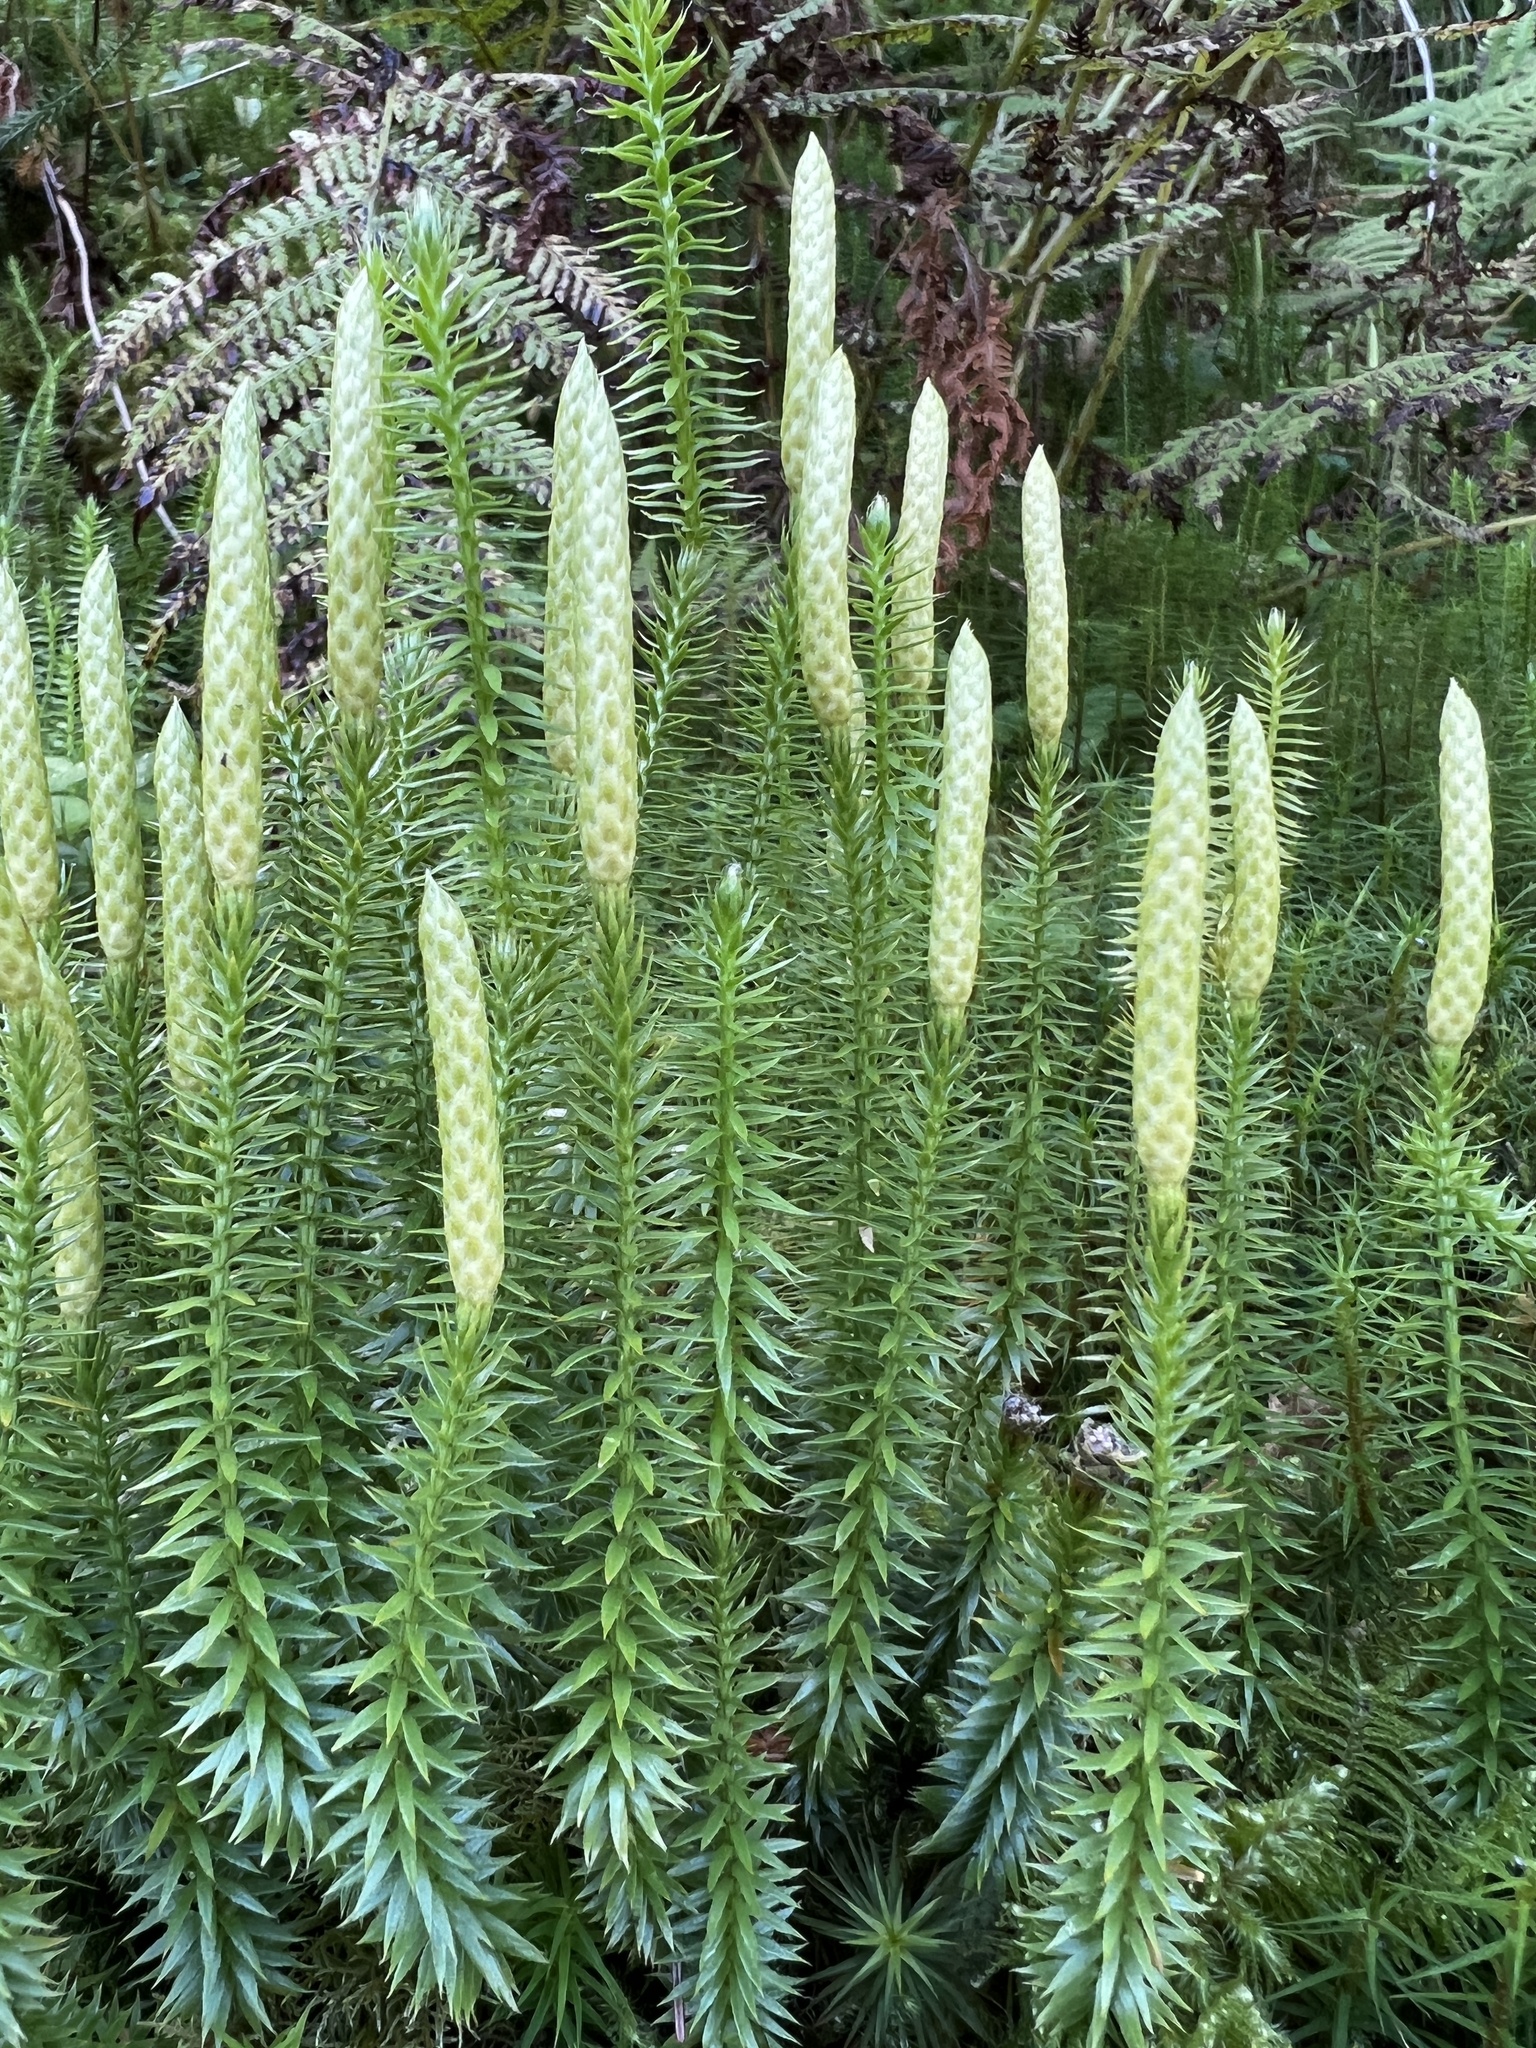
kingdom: Plantae
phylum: Tracheophyta
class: Lycopodiopsida
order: Lycopodiales
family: Lycopodiaceae
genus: Spinulum
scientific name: Spinulum annotinum
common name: Interrupted club-moss
